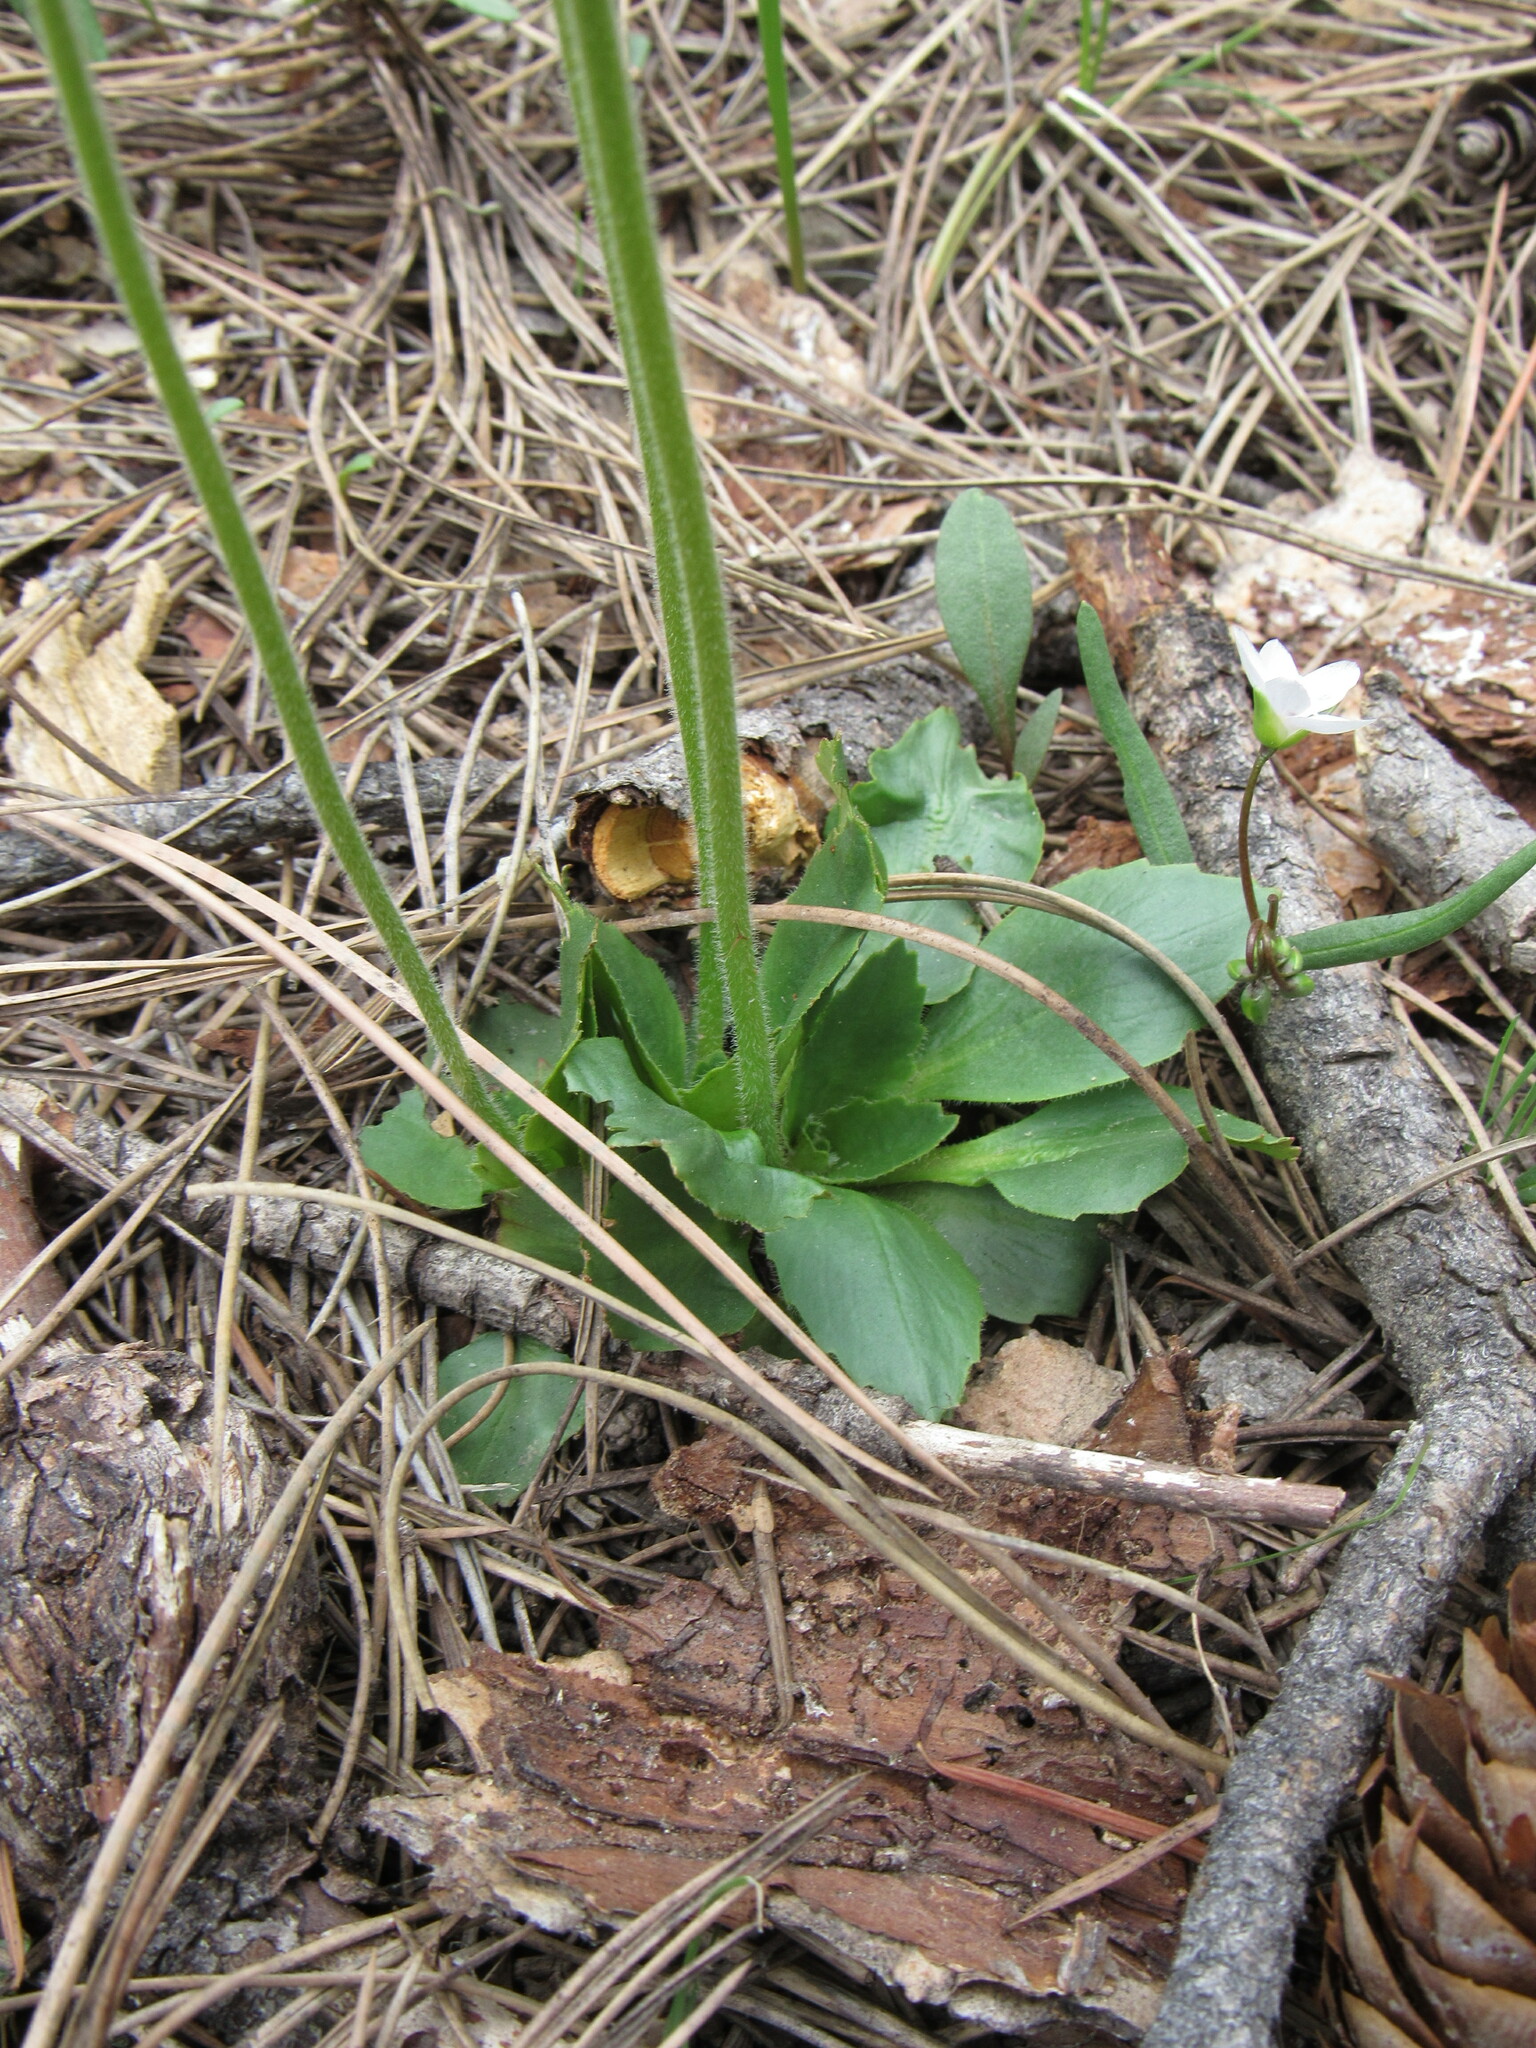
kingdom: Plantae
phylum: Tracheophyta
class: Magnoliopsida
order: Saxifragales
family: Saxifragaceae
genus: Micranthes
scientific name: Micranthes rhomboidea
